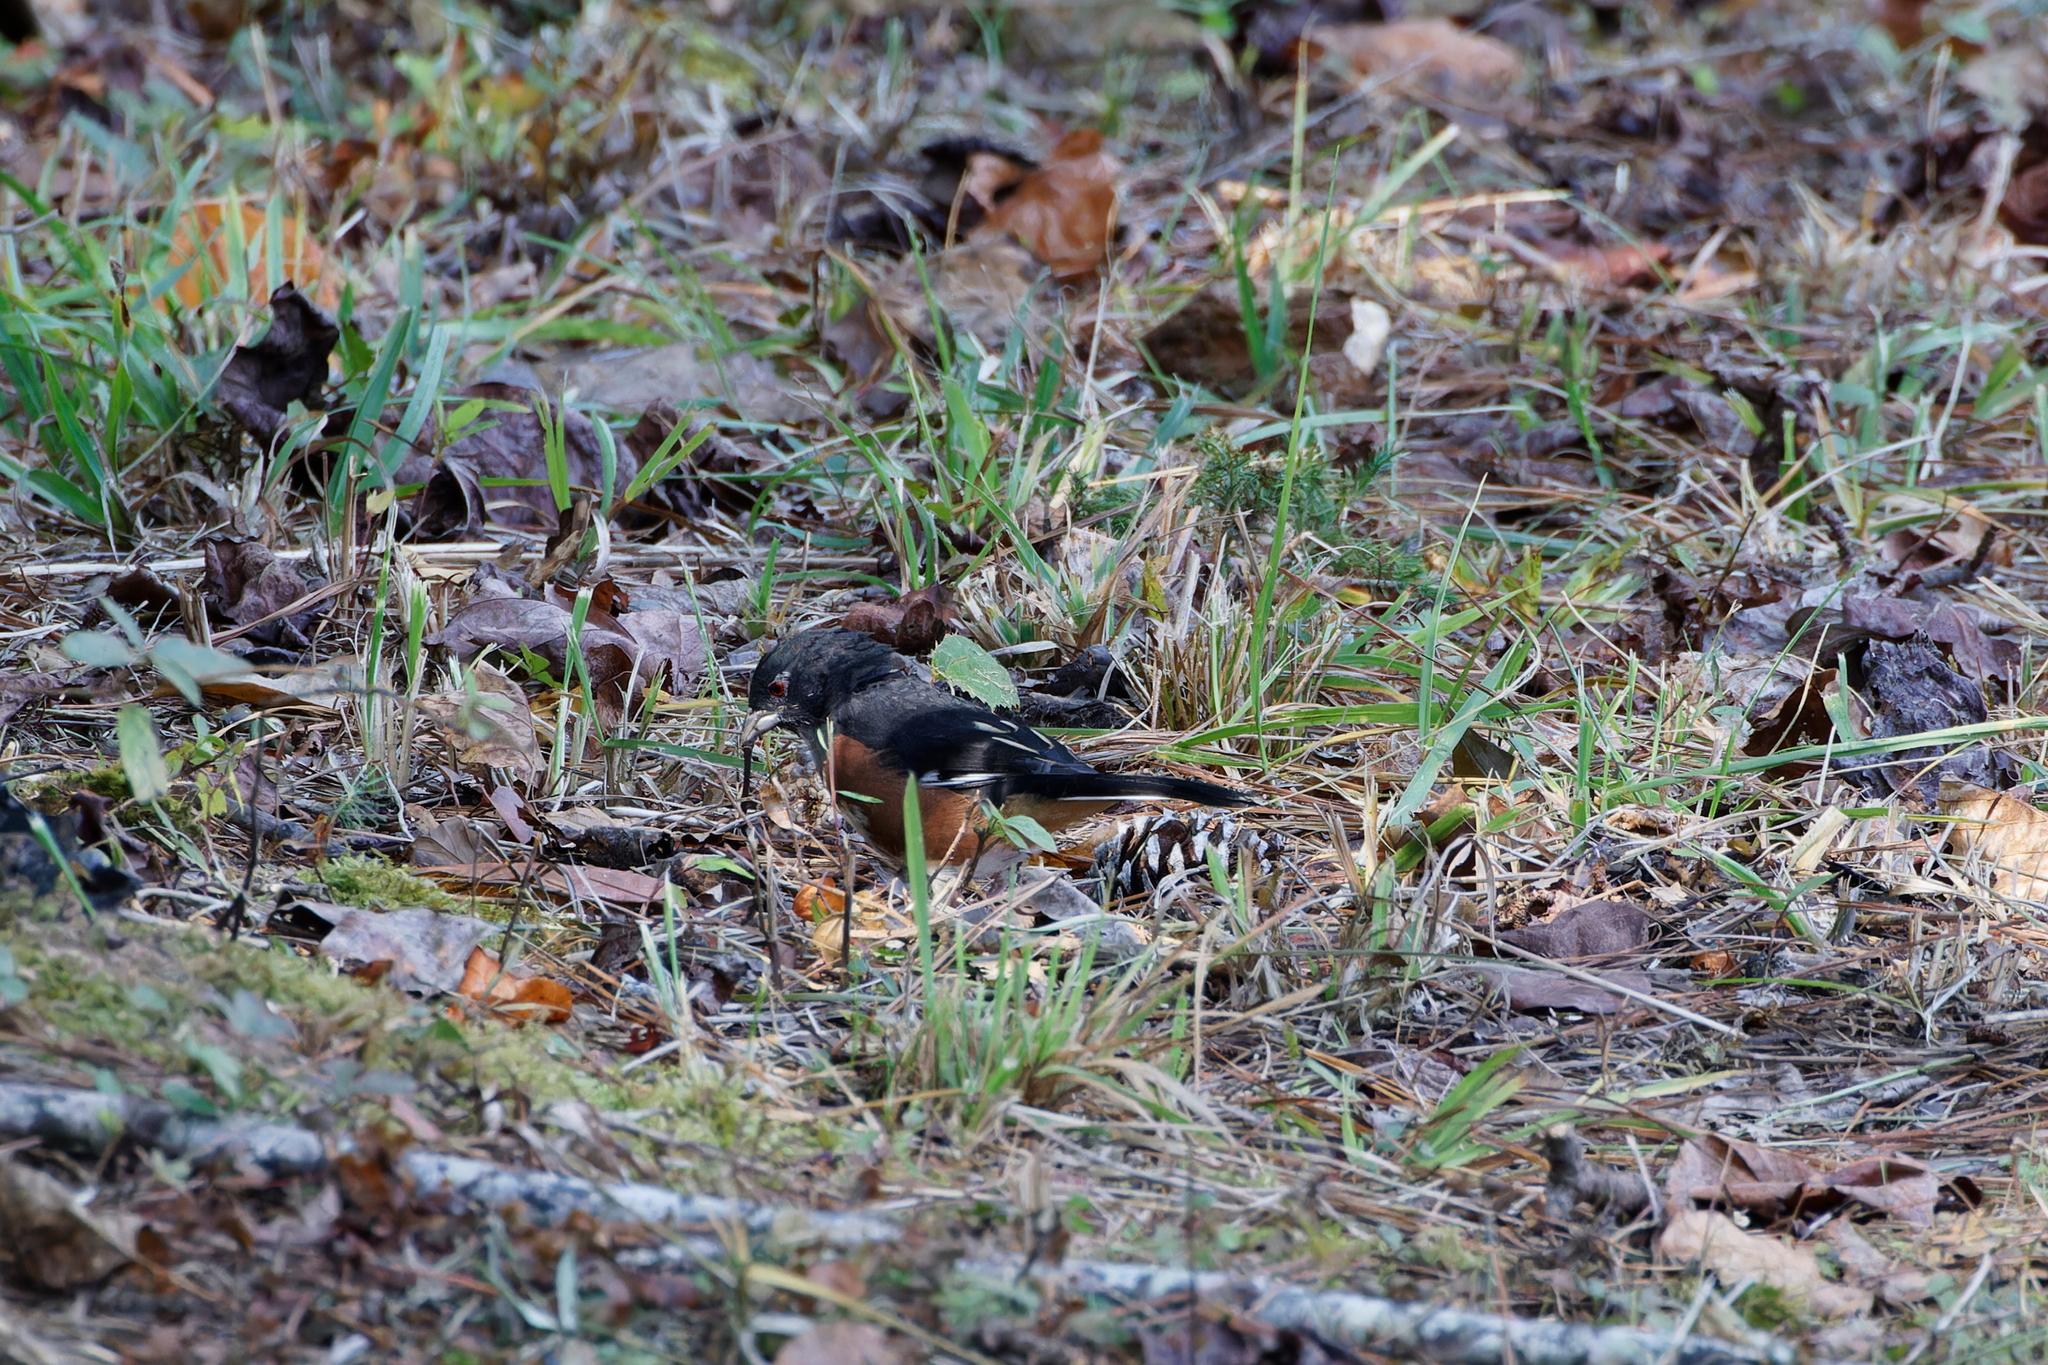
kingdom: Animalia
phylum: Chordata
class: Aves
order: Passeriformes
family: Passerellidae
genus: Pipilo
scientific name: Pipilo erythrophthalmus
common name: Eastern towhee
